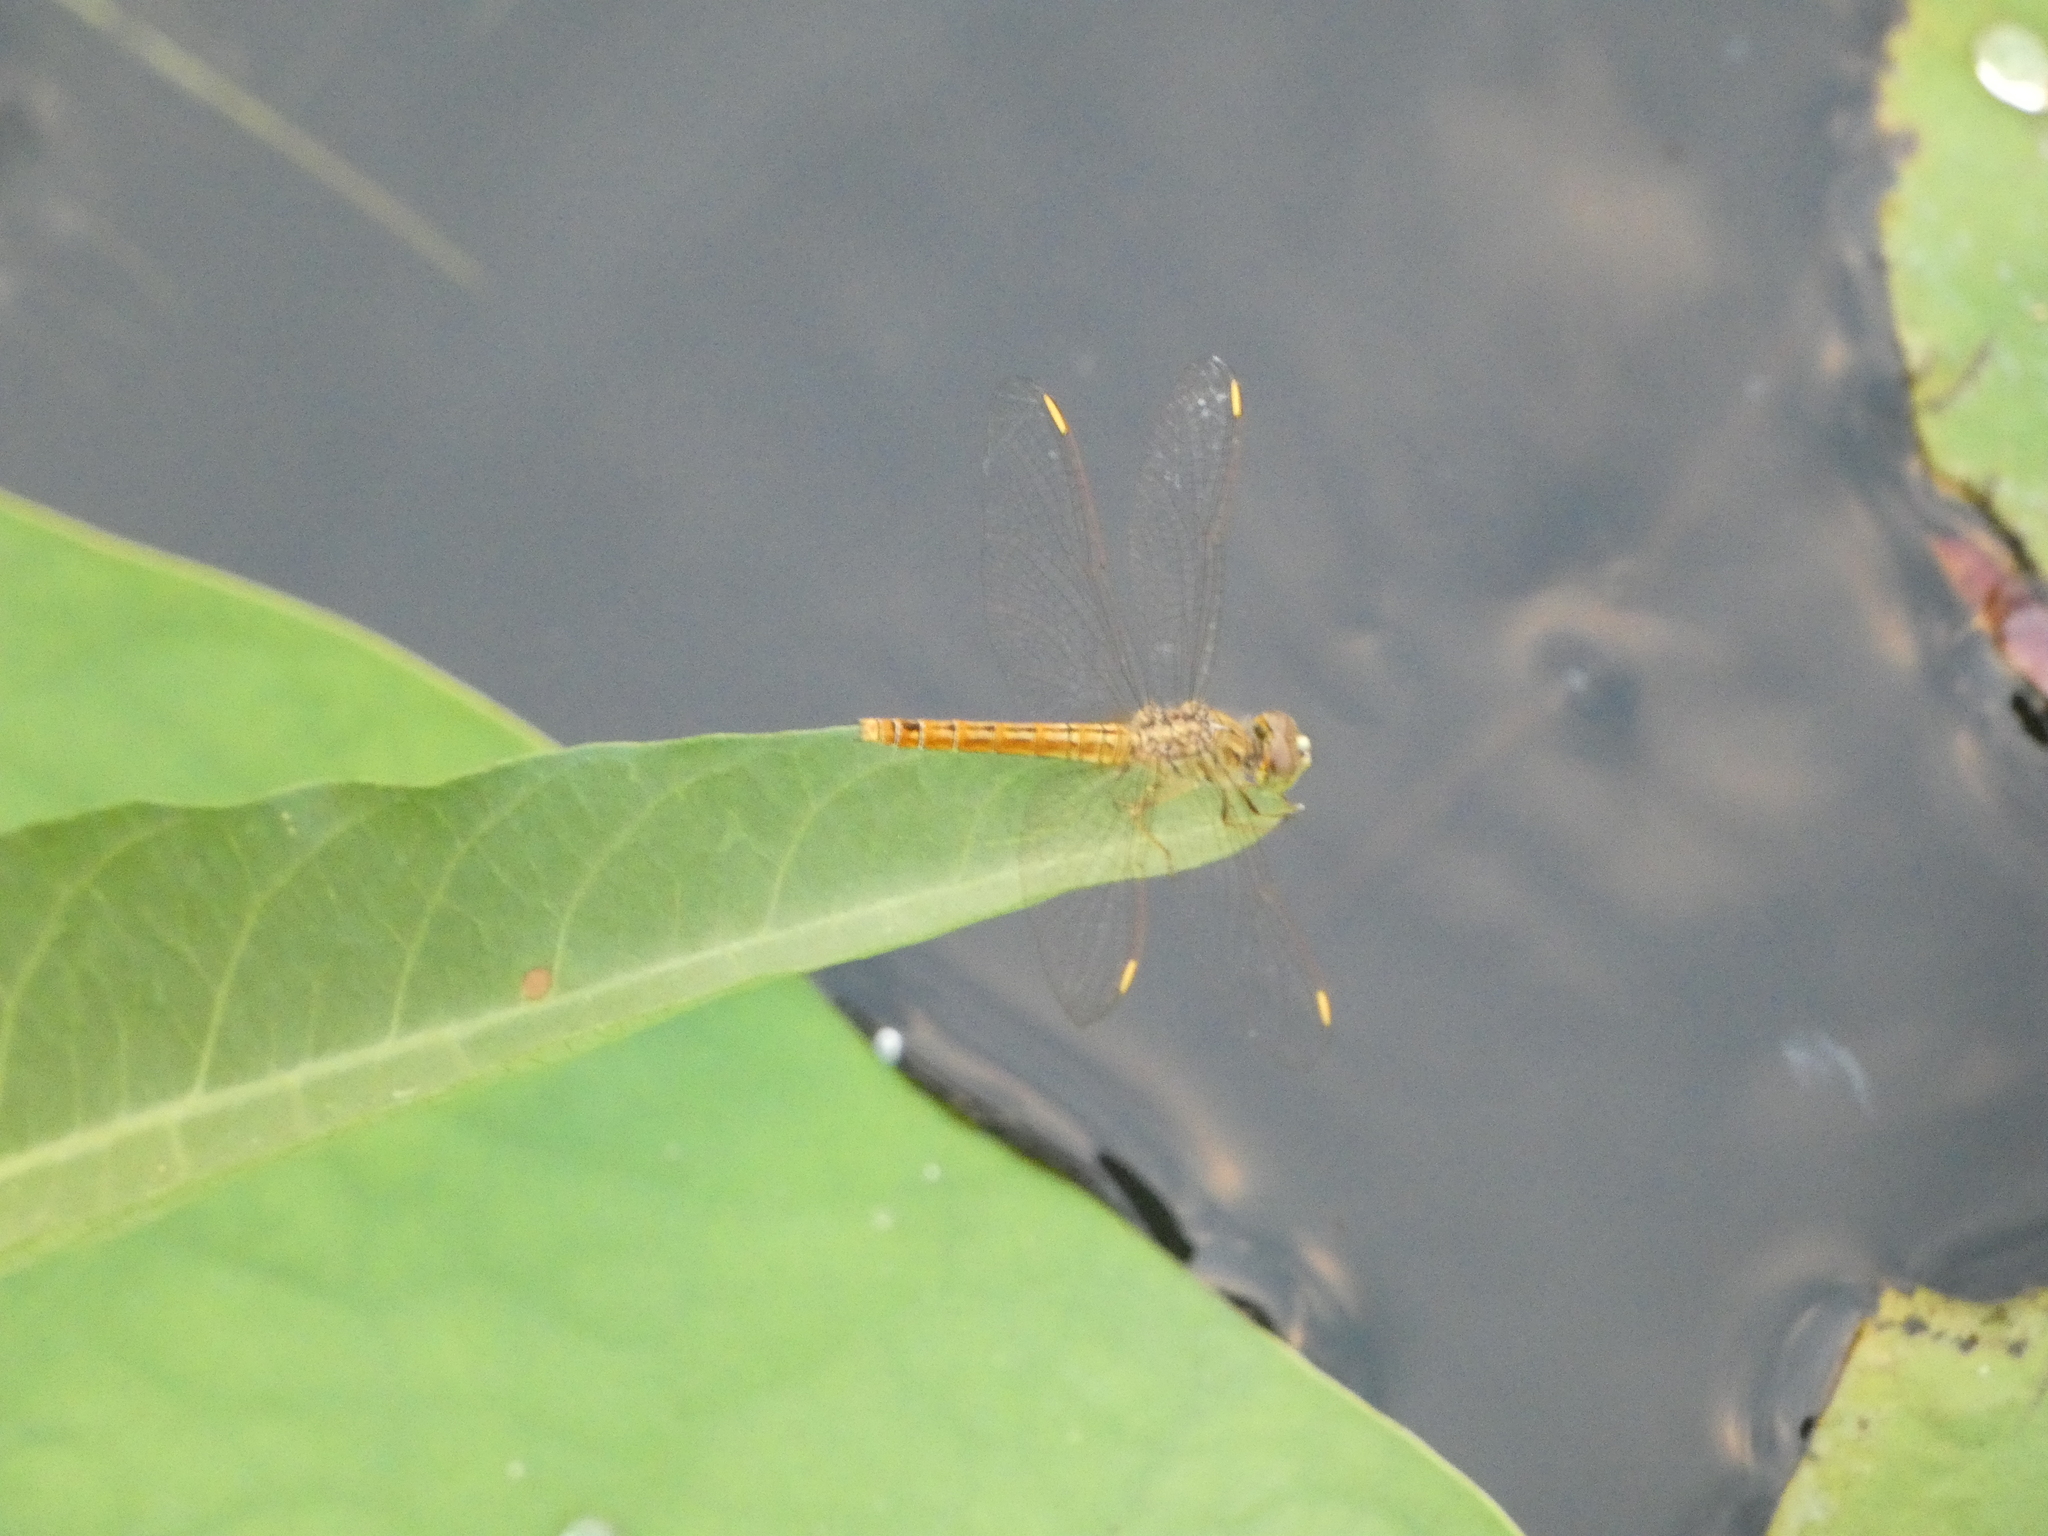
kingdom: Animalia
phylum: Arthropoda
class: Insecta
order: Odonata
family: Libellulidae
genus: Brachythemis
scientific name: Brachythemis contaminata
